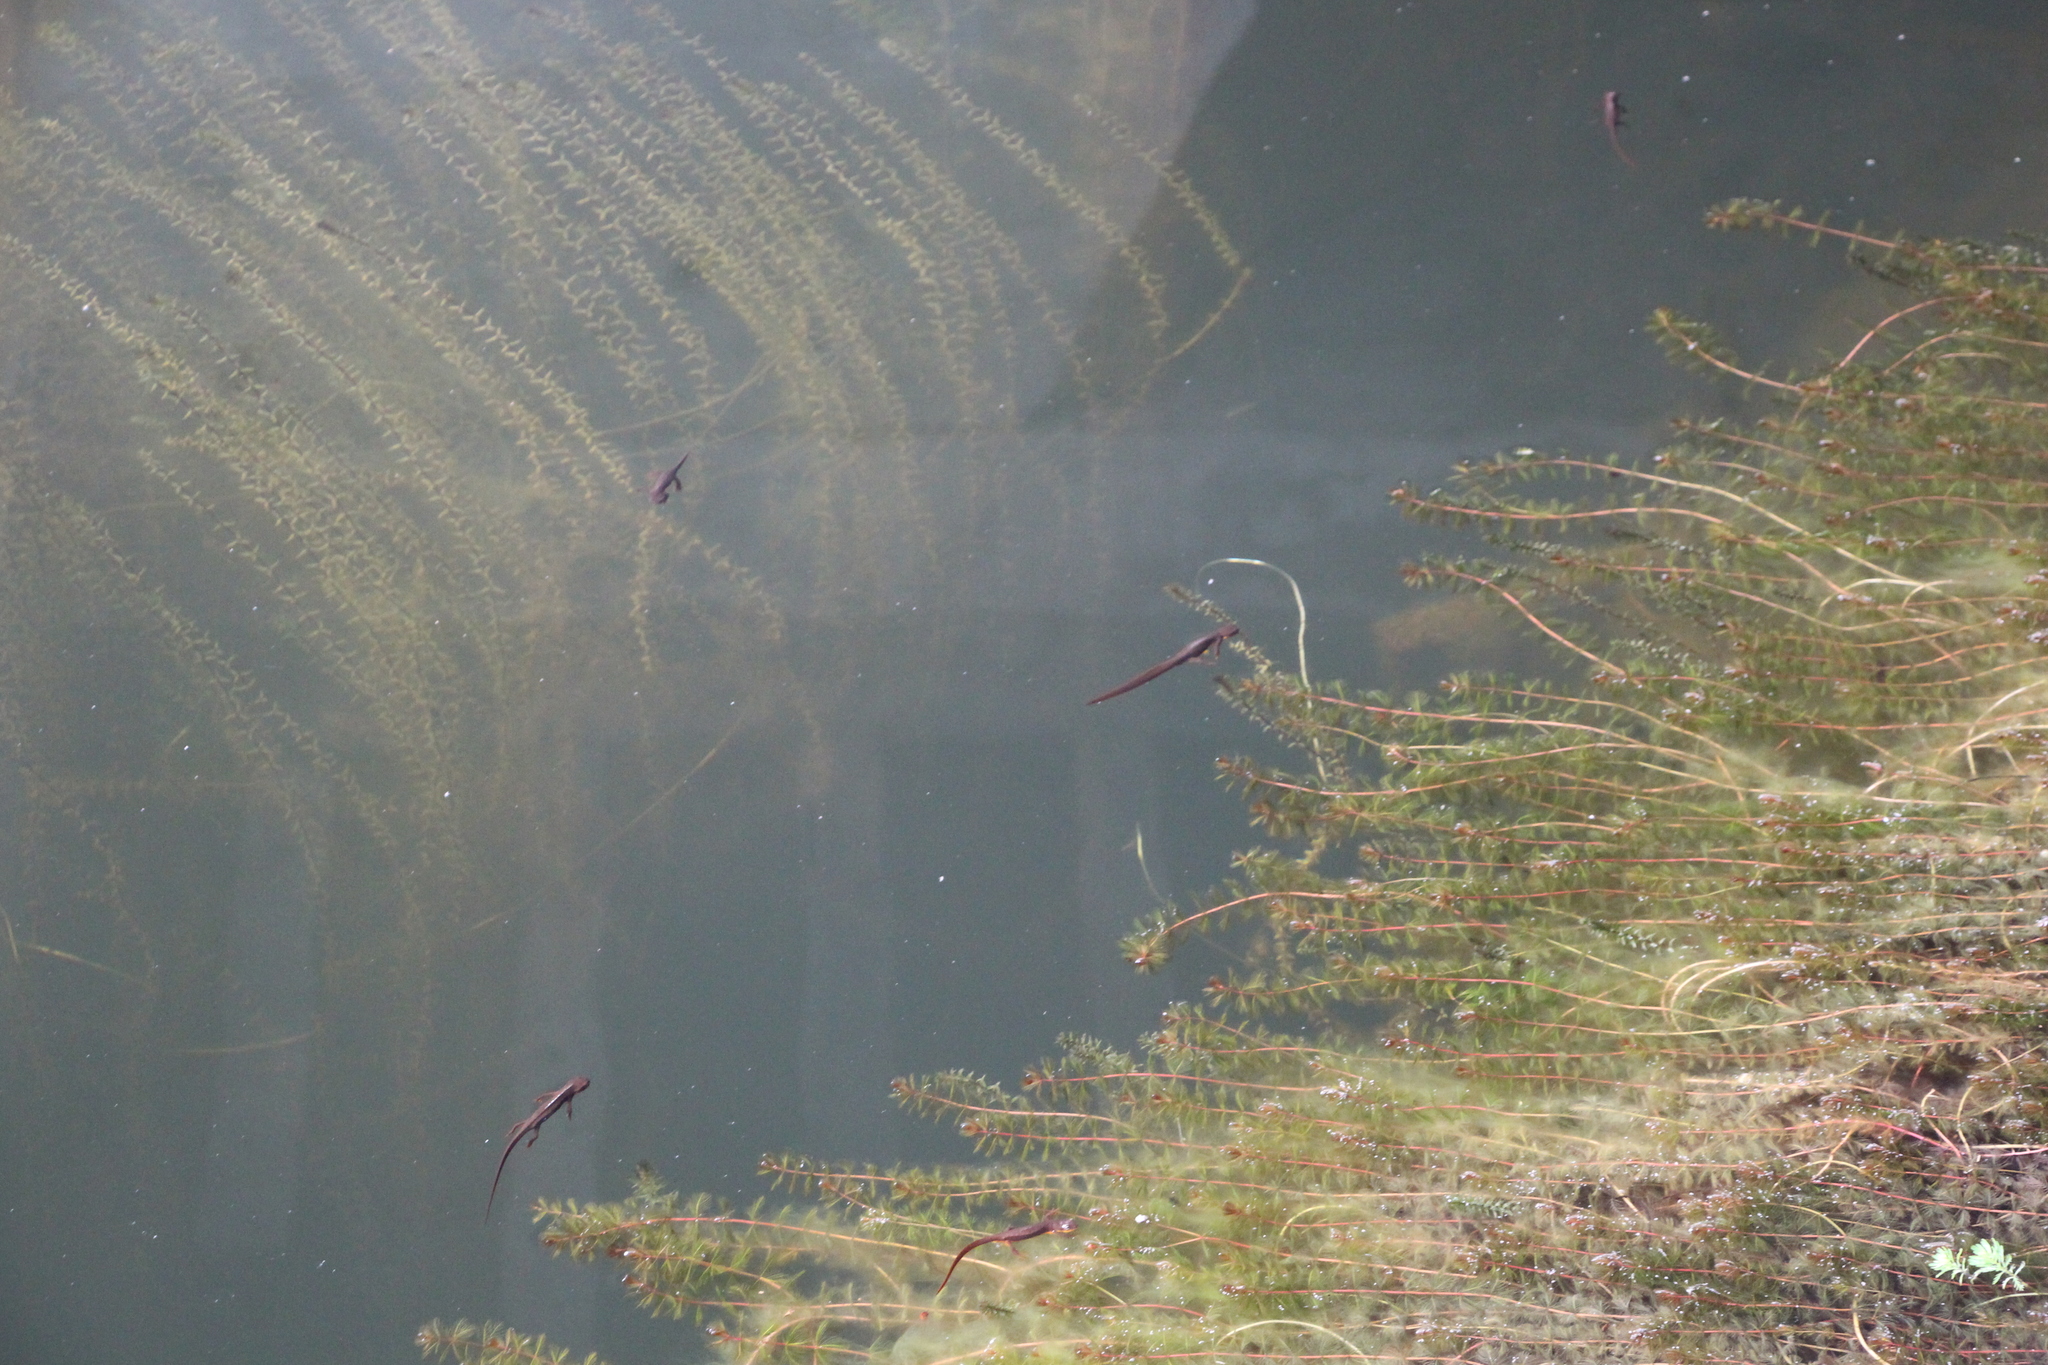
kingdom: Animalia
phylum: Chordata
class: Amphibia
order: Caudata
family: Salamandridae
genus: Taricha
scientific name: Taricha torosa
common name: California newt
